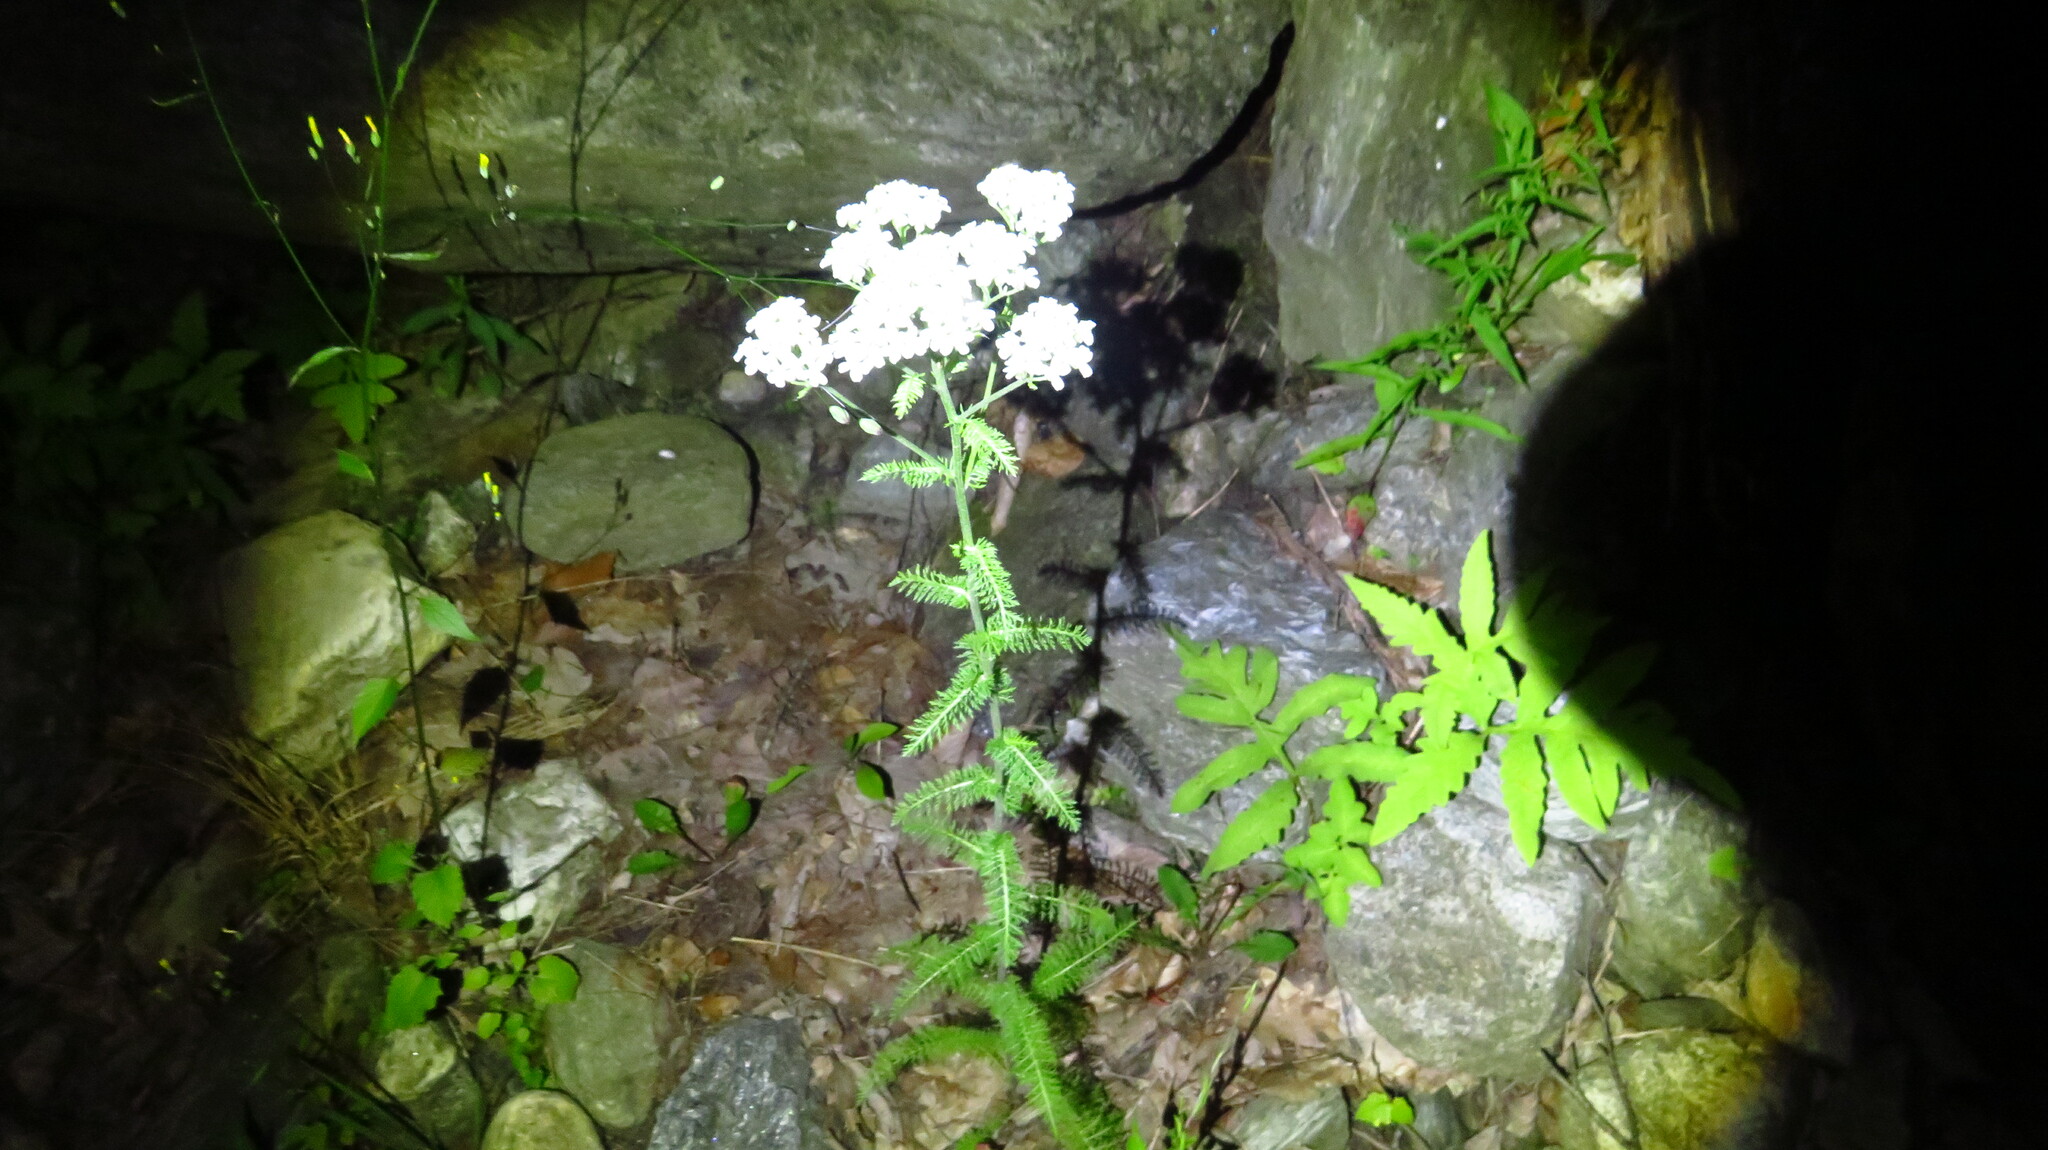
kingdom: Plantae
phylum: Tracheophyta
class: Magnoliopsida
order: Asterales
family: Asteraceae
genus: Achillea
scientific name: Achillea millefolium
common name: Yarrow
